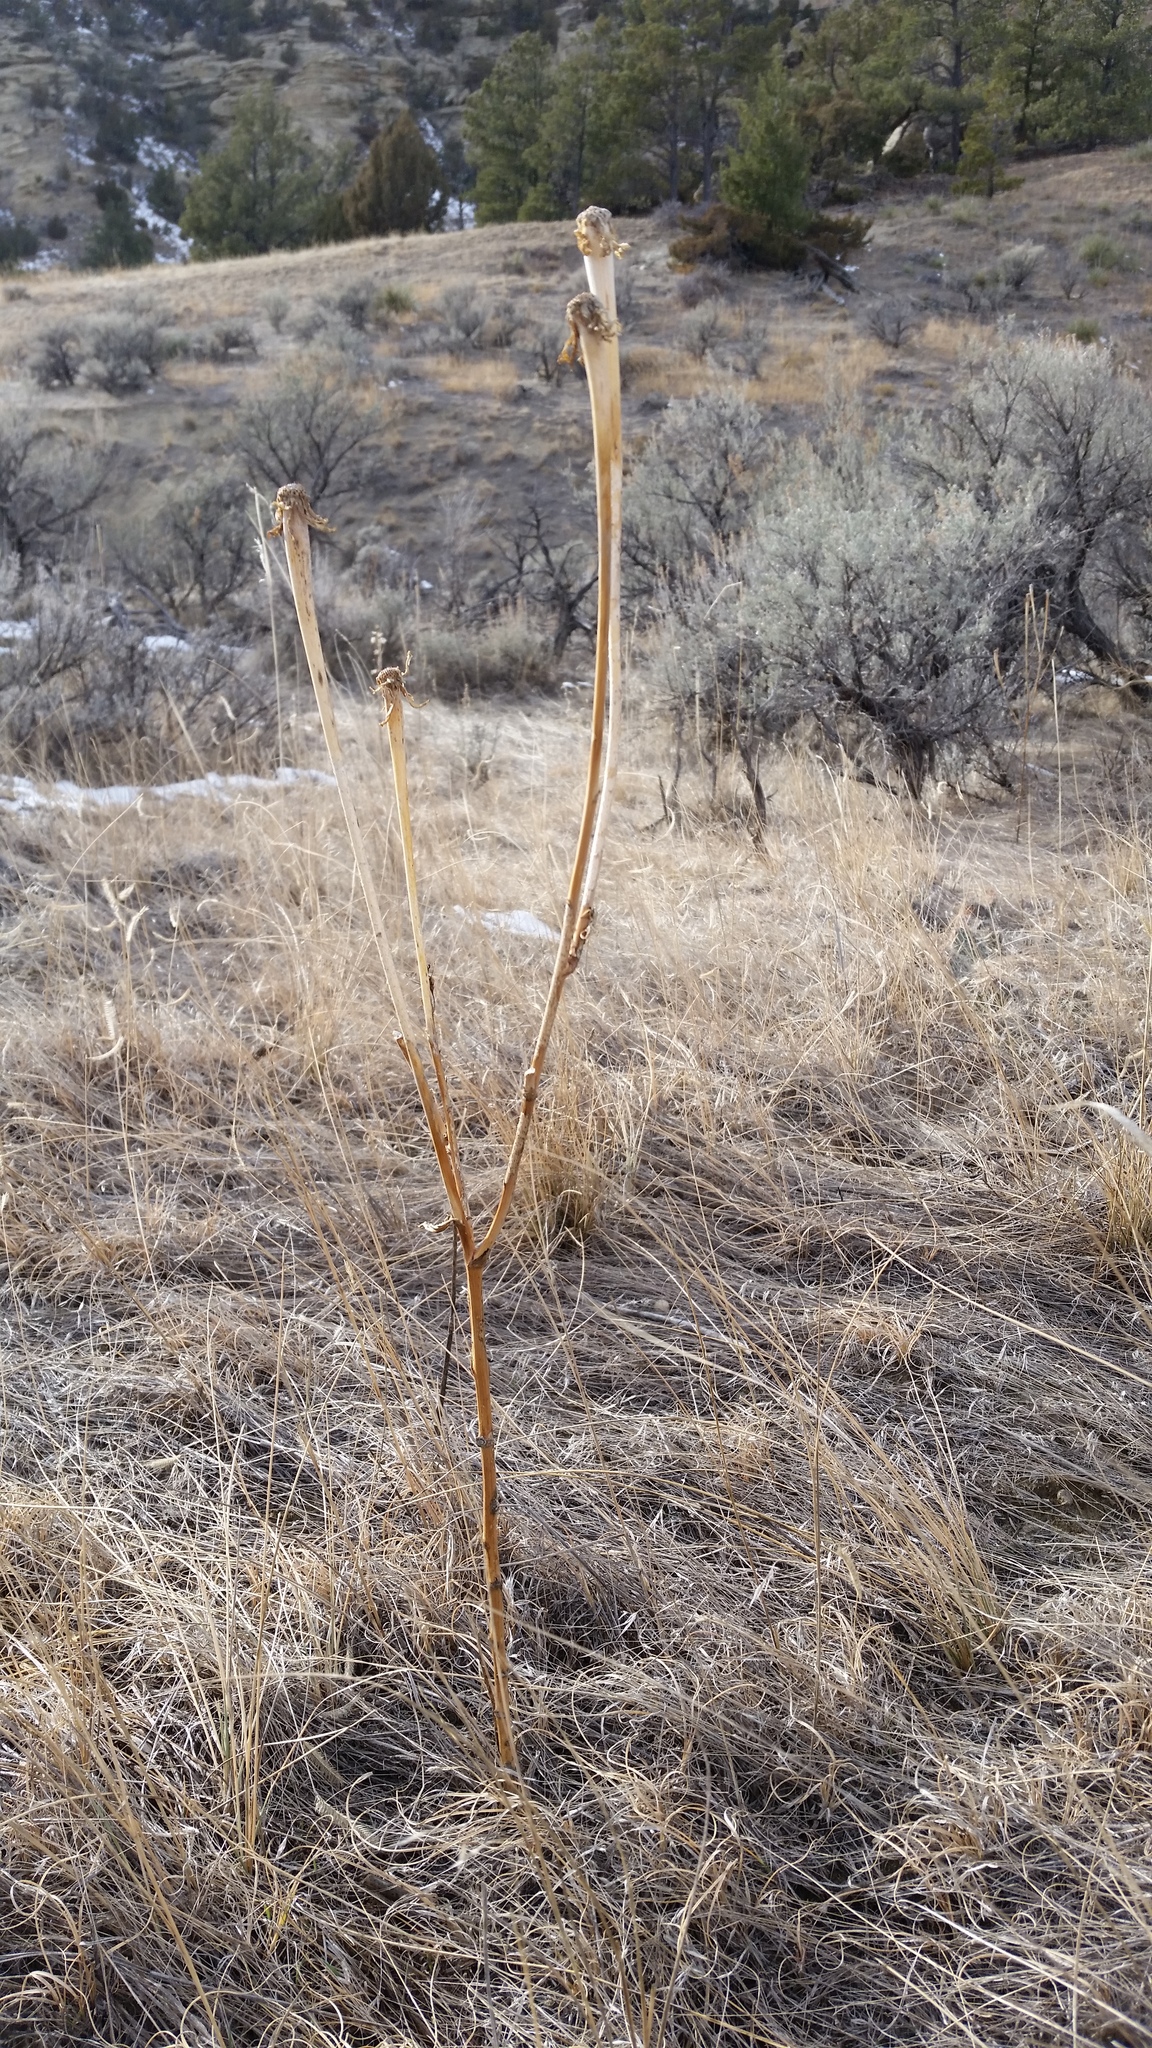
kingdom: Plantae
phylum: Tracheophyta
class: Magnoliopsida
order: Asterales
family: Asteraceae
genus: Tragopogon
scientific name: Tragopogon dubius
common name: Yellow salsify
